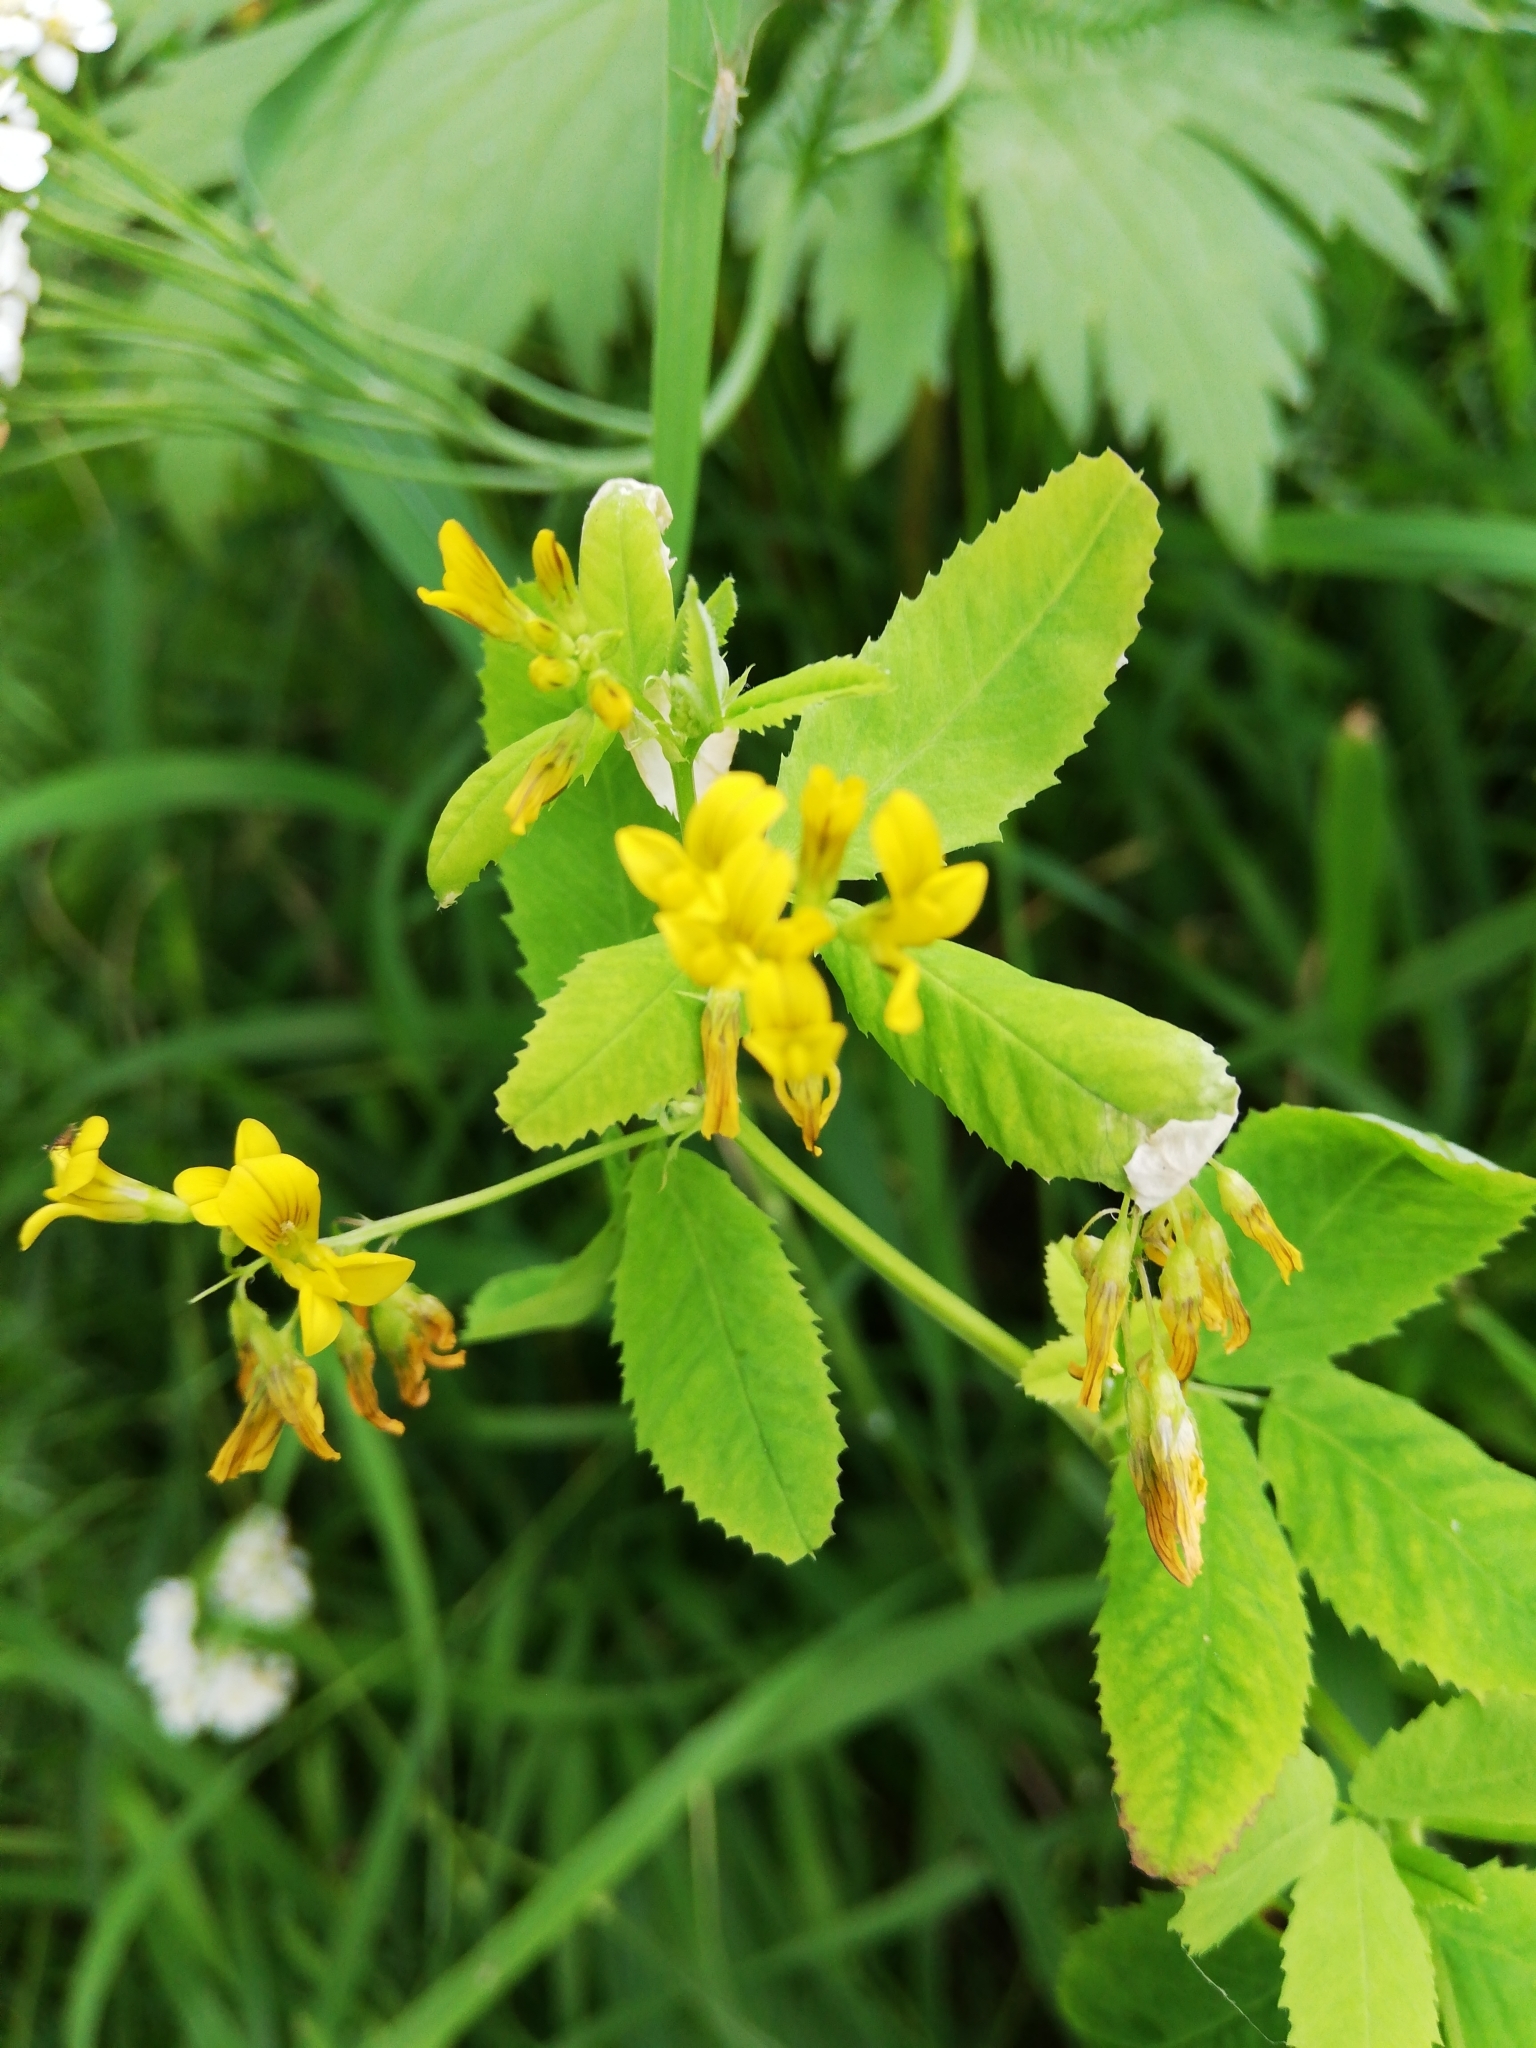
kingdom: Plantae
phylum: Tracheophyta
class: Magnoliopsida
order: Fabales
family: Fabaceae
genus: Medicago
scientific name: Medicago platycarpos
